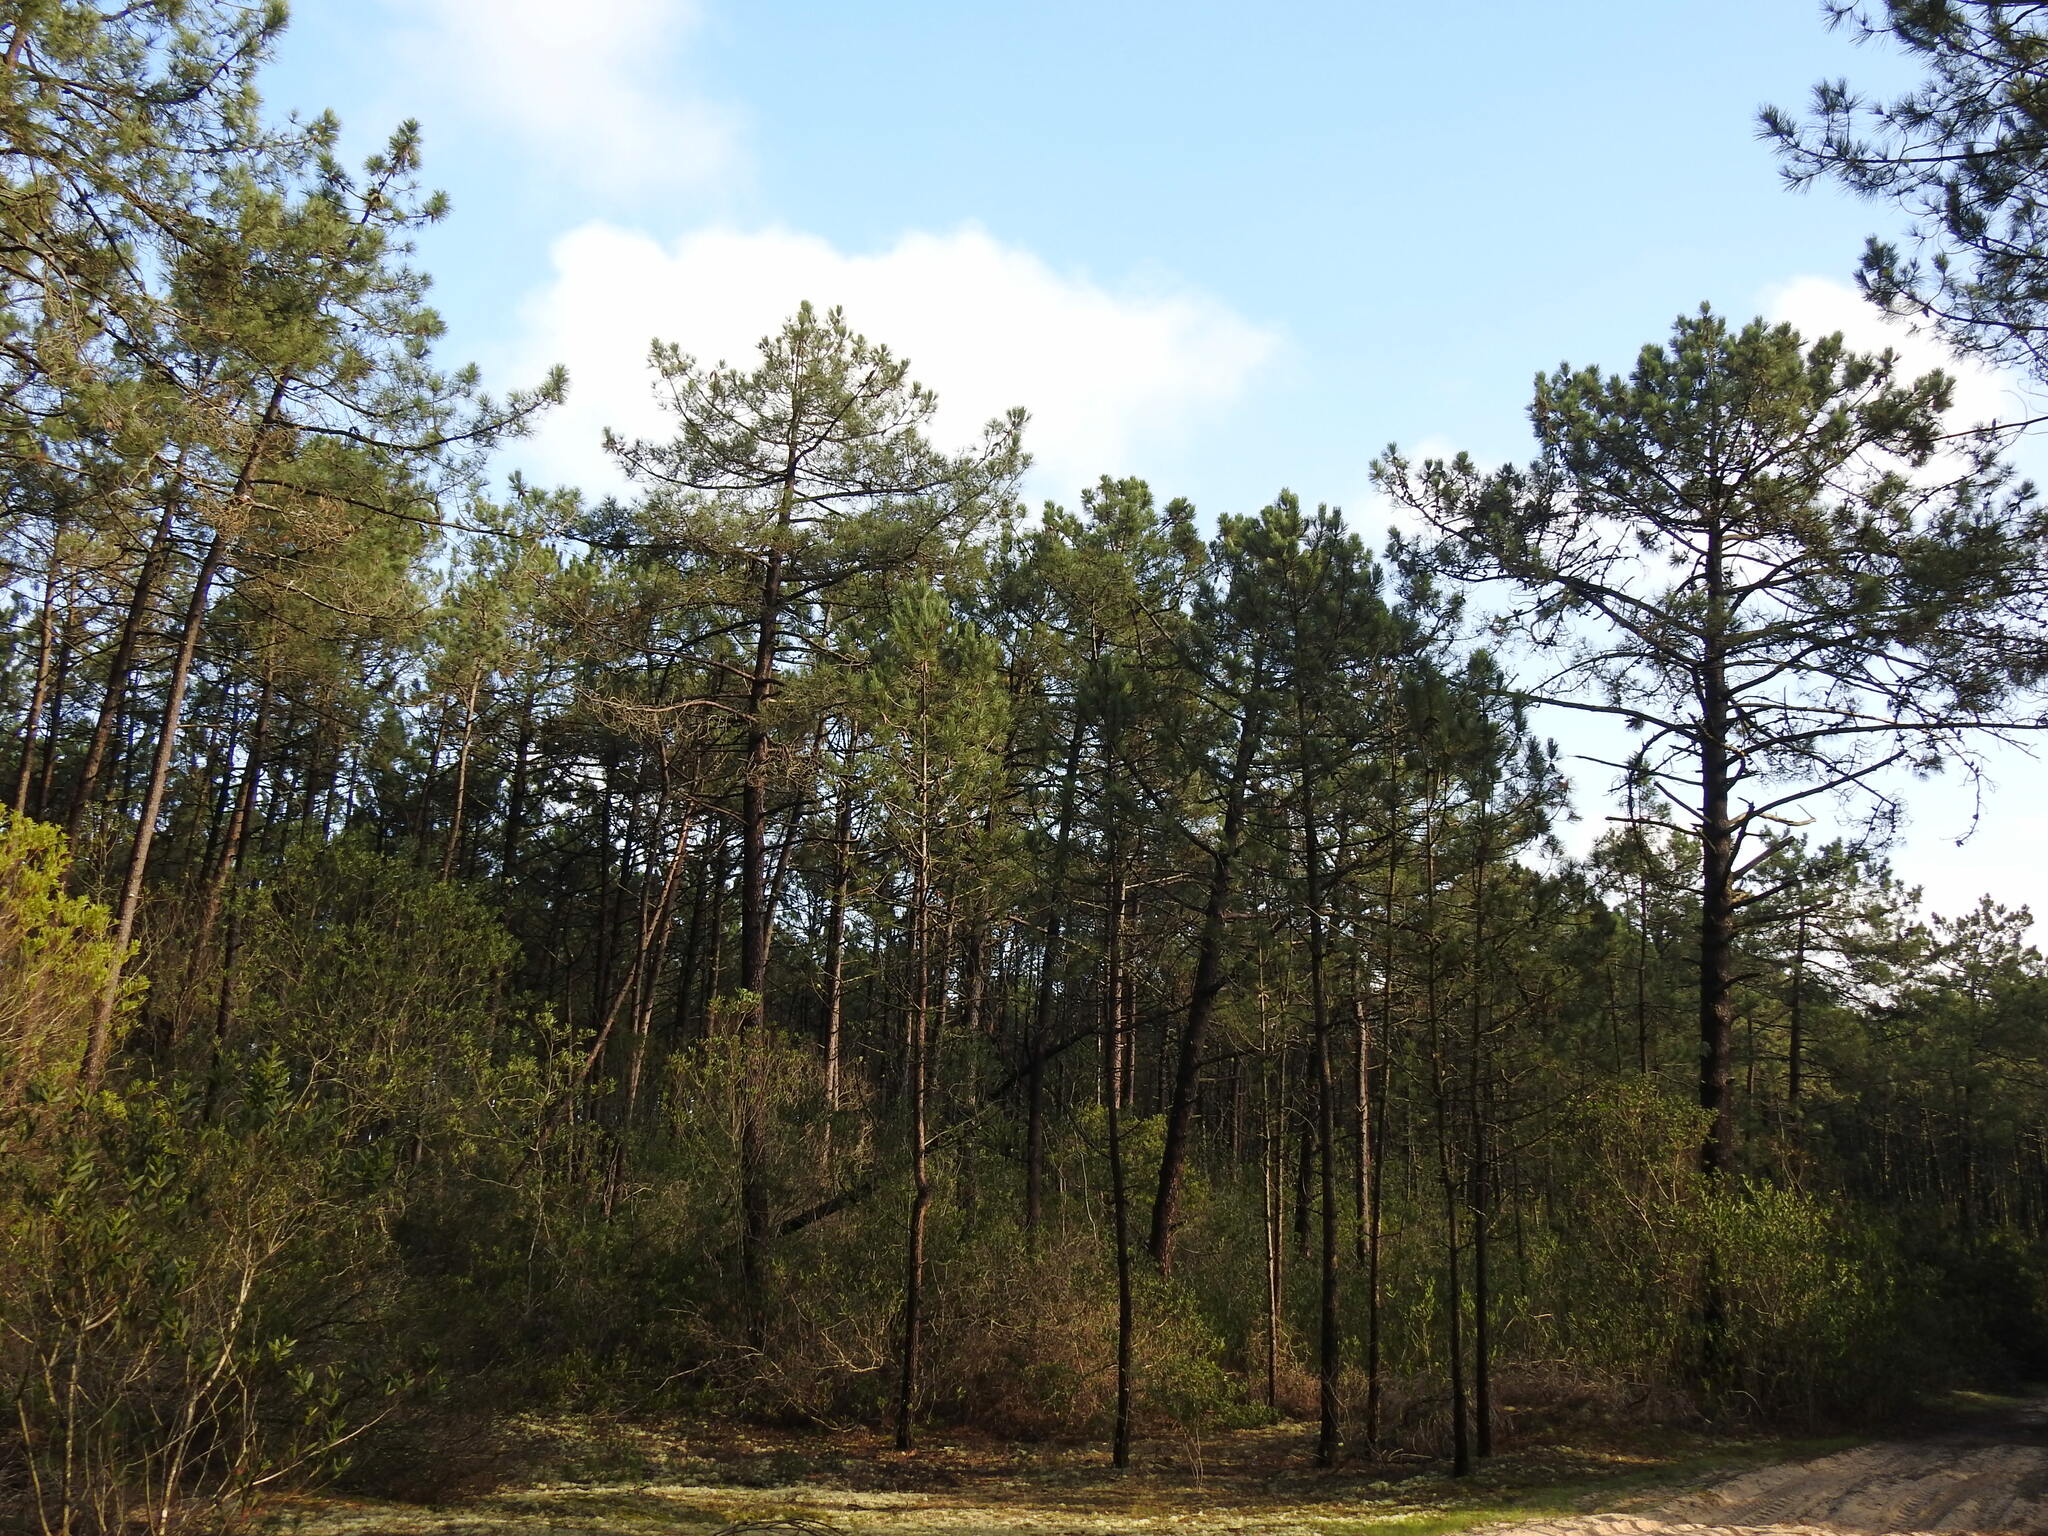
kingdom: Plantae
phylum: Tracheophyta
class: Pinopsida
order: Pinales
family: Pinaceae
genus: Pinus
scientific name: Pinus pinaster
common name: Maritime pine
